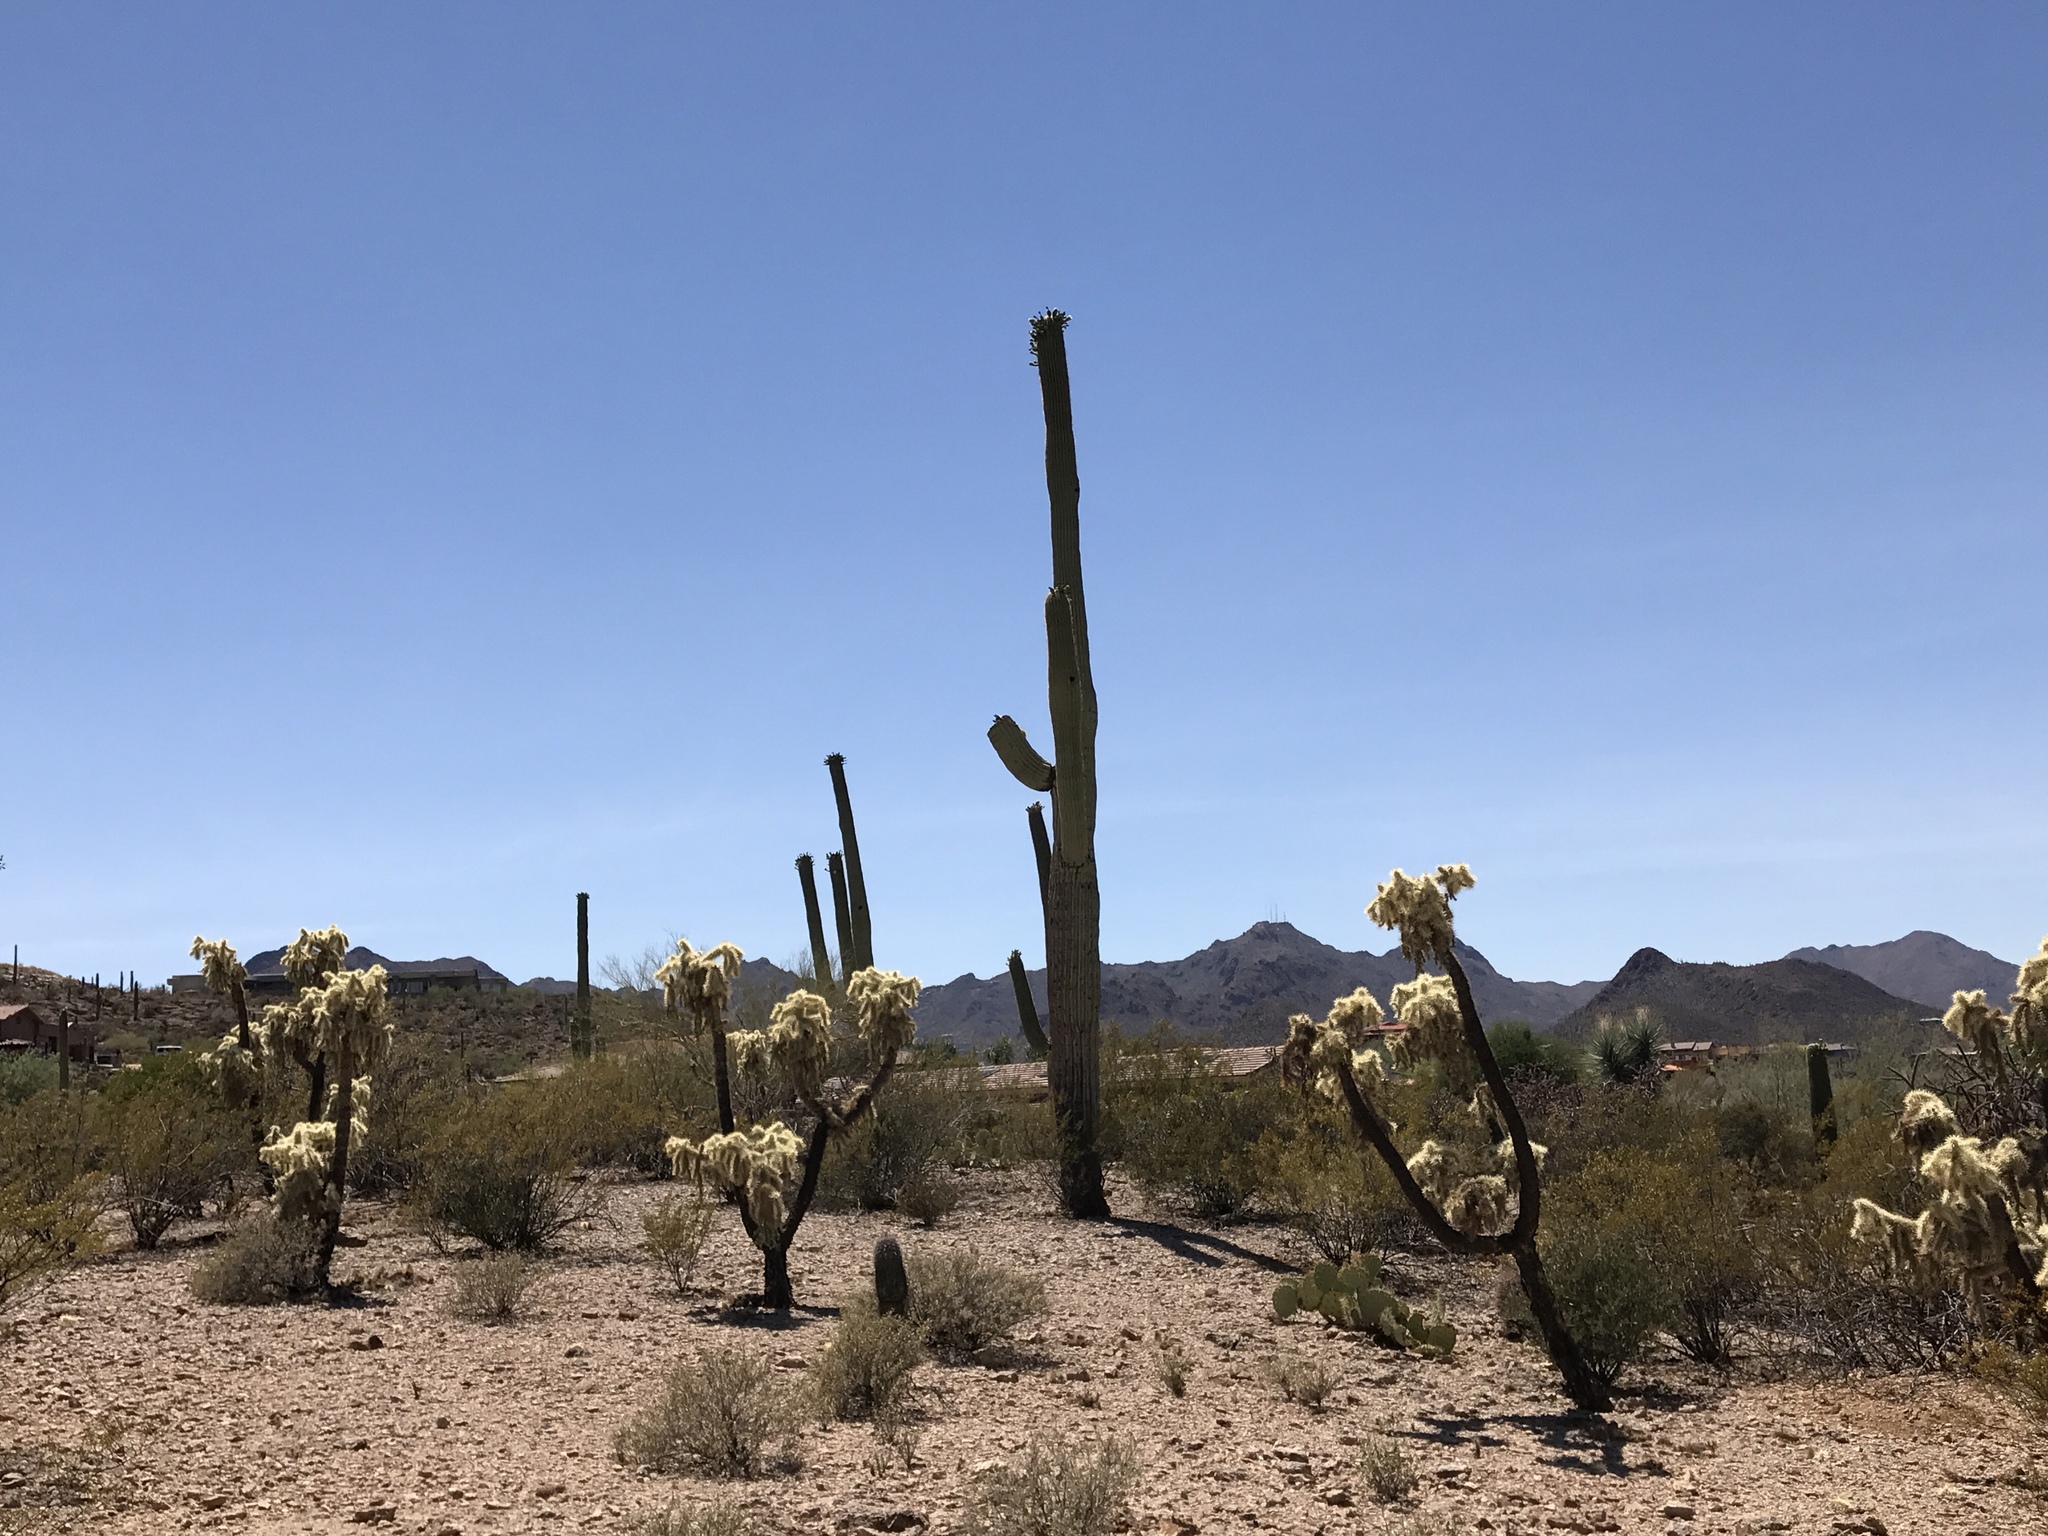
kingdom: Plantae
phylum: Tracheophyta
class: Magnoliopsida
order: Caryophyllales
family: Cactaceae
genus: Cylindropuntia
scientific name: Cylindropuntia fulgida
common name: Jumping cholla
